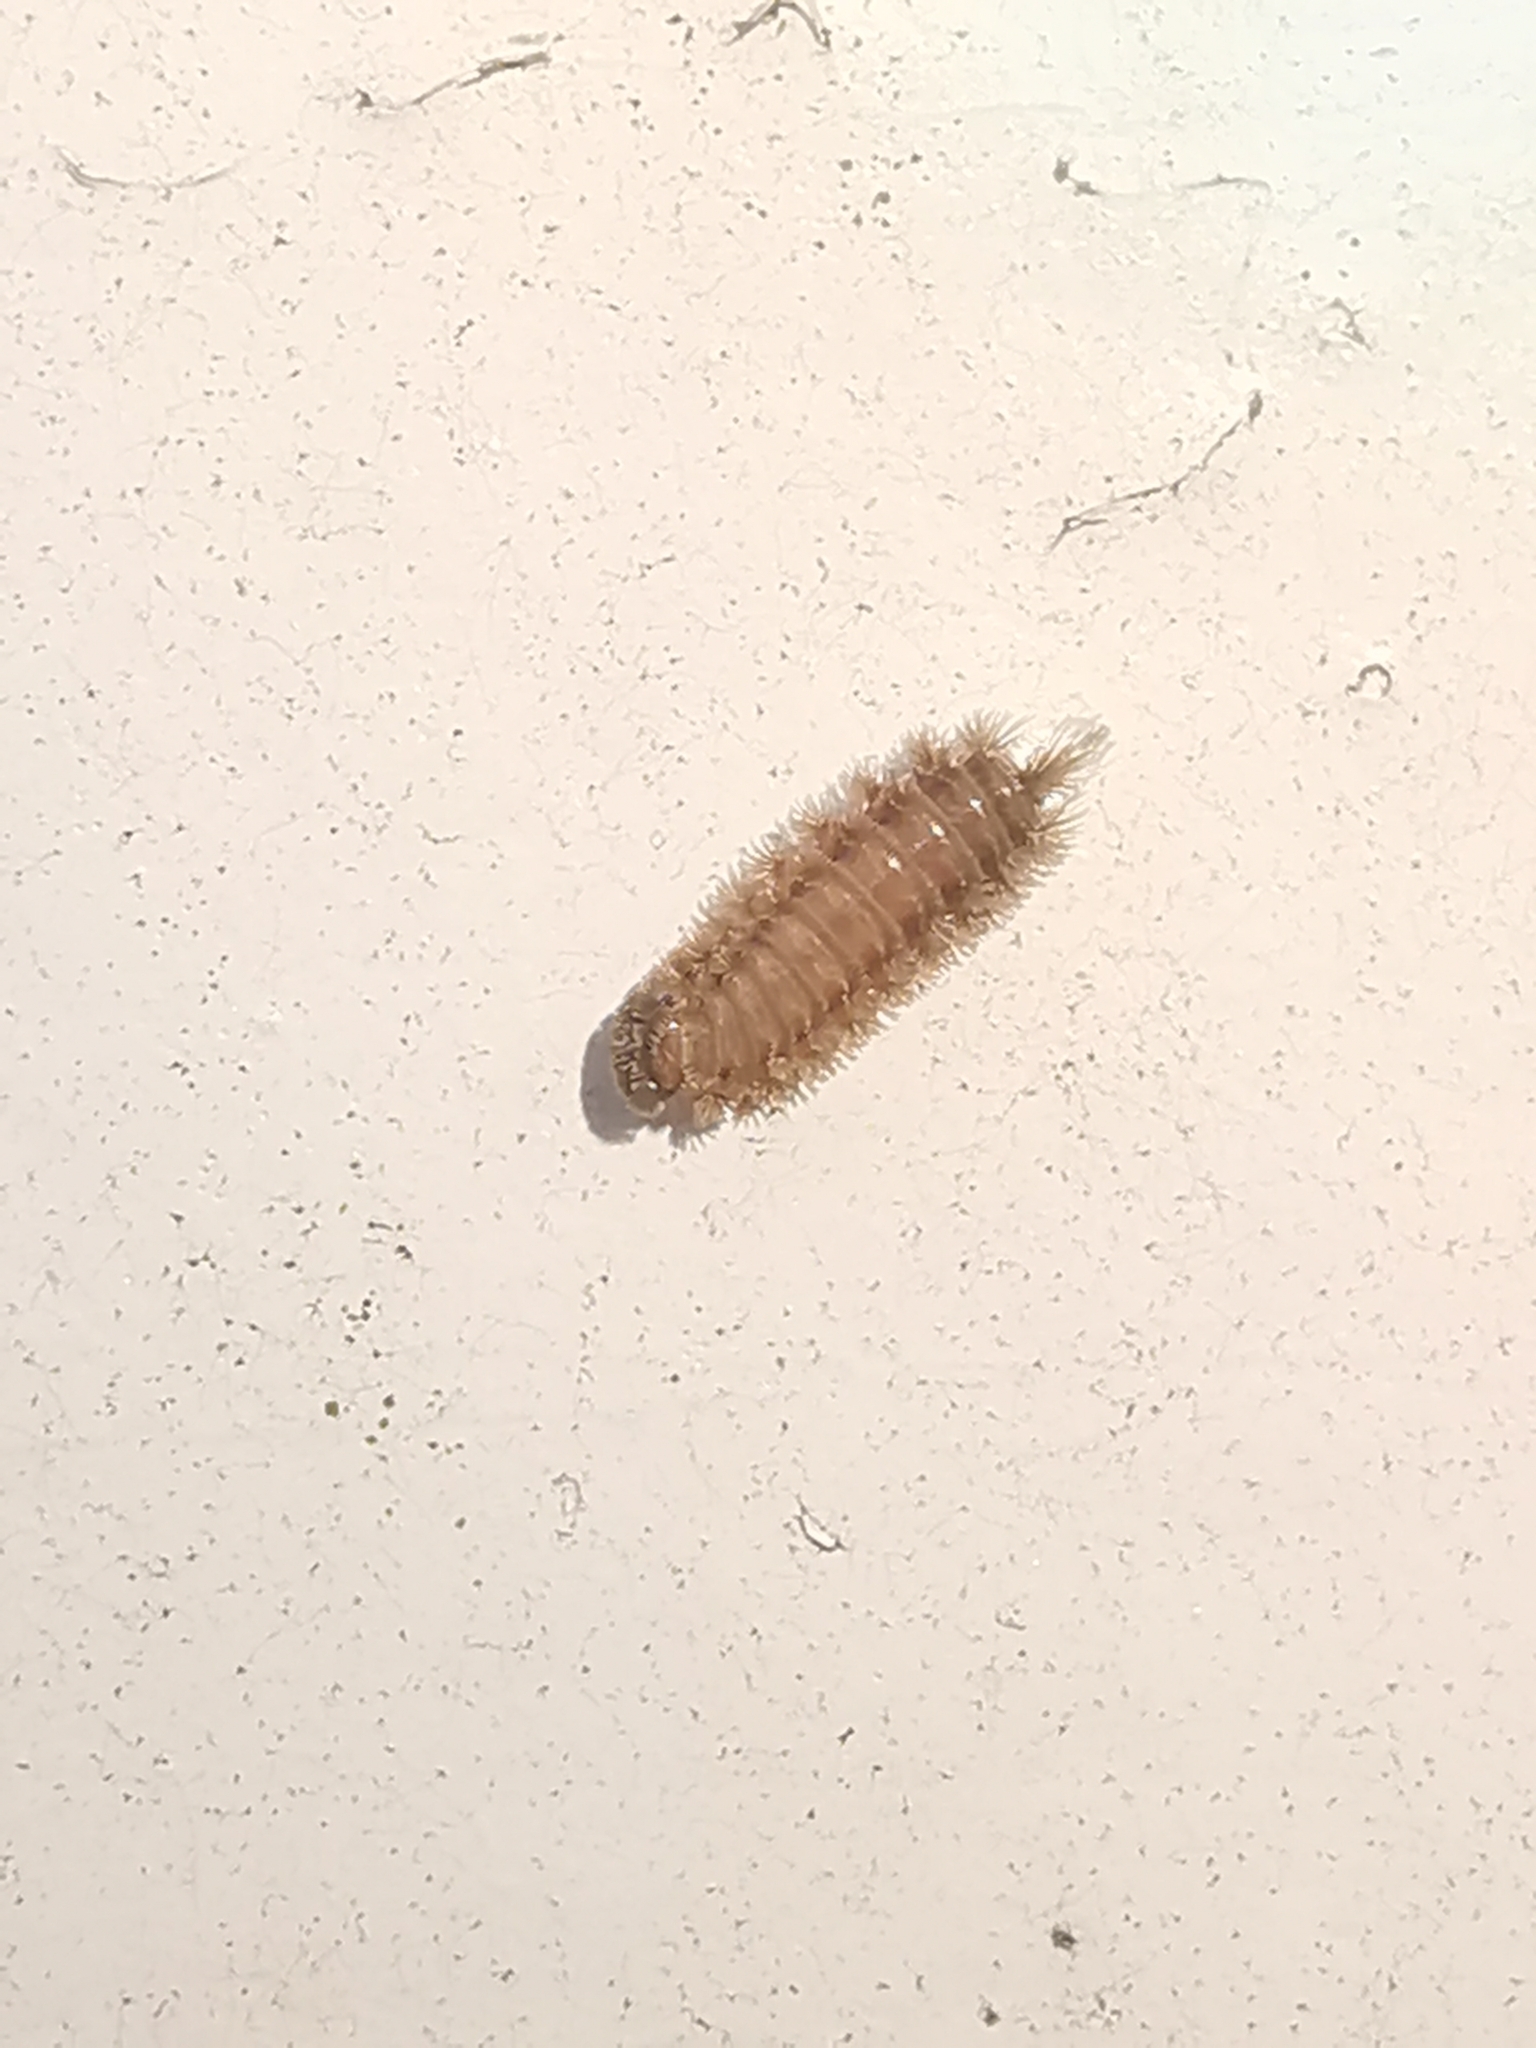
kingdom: Animalia
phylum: Arthropoda
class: Diplopoda
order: Polyxenida
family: Polyxenidae
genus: Polyxenus
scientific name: Polyxenus lagurus
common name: Bristly millipede
